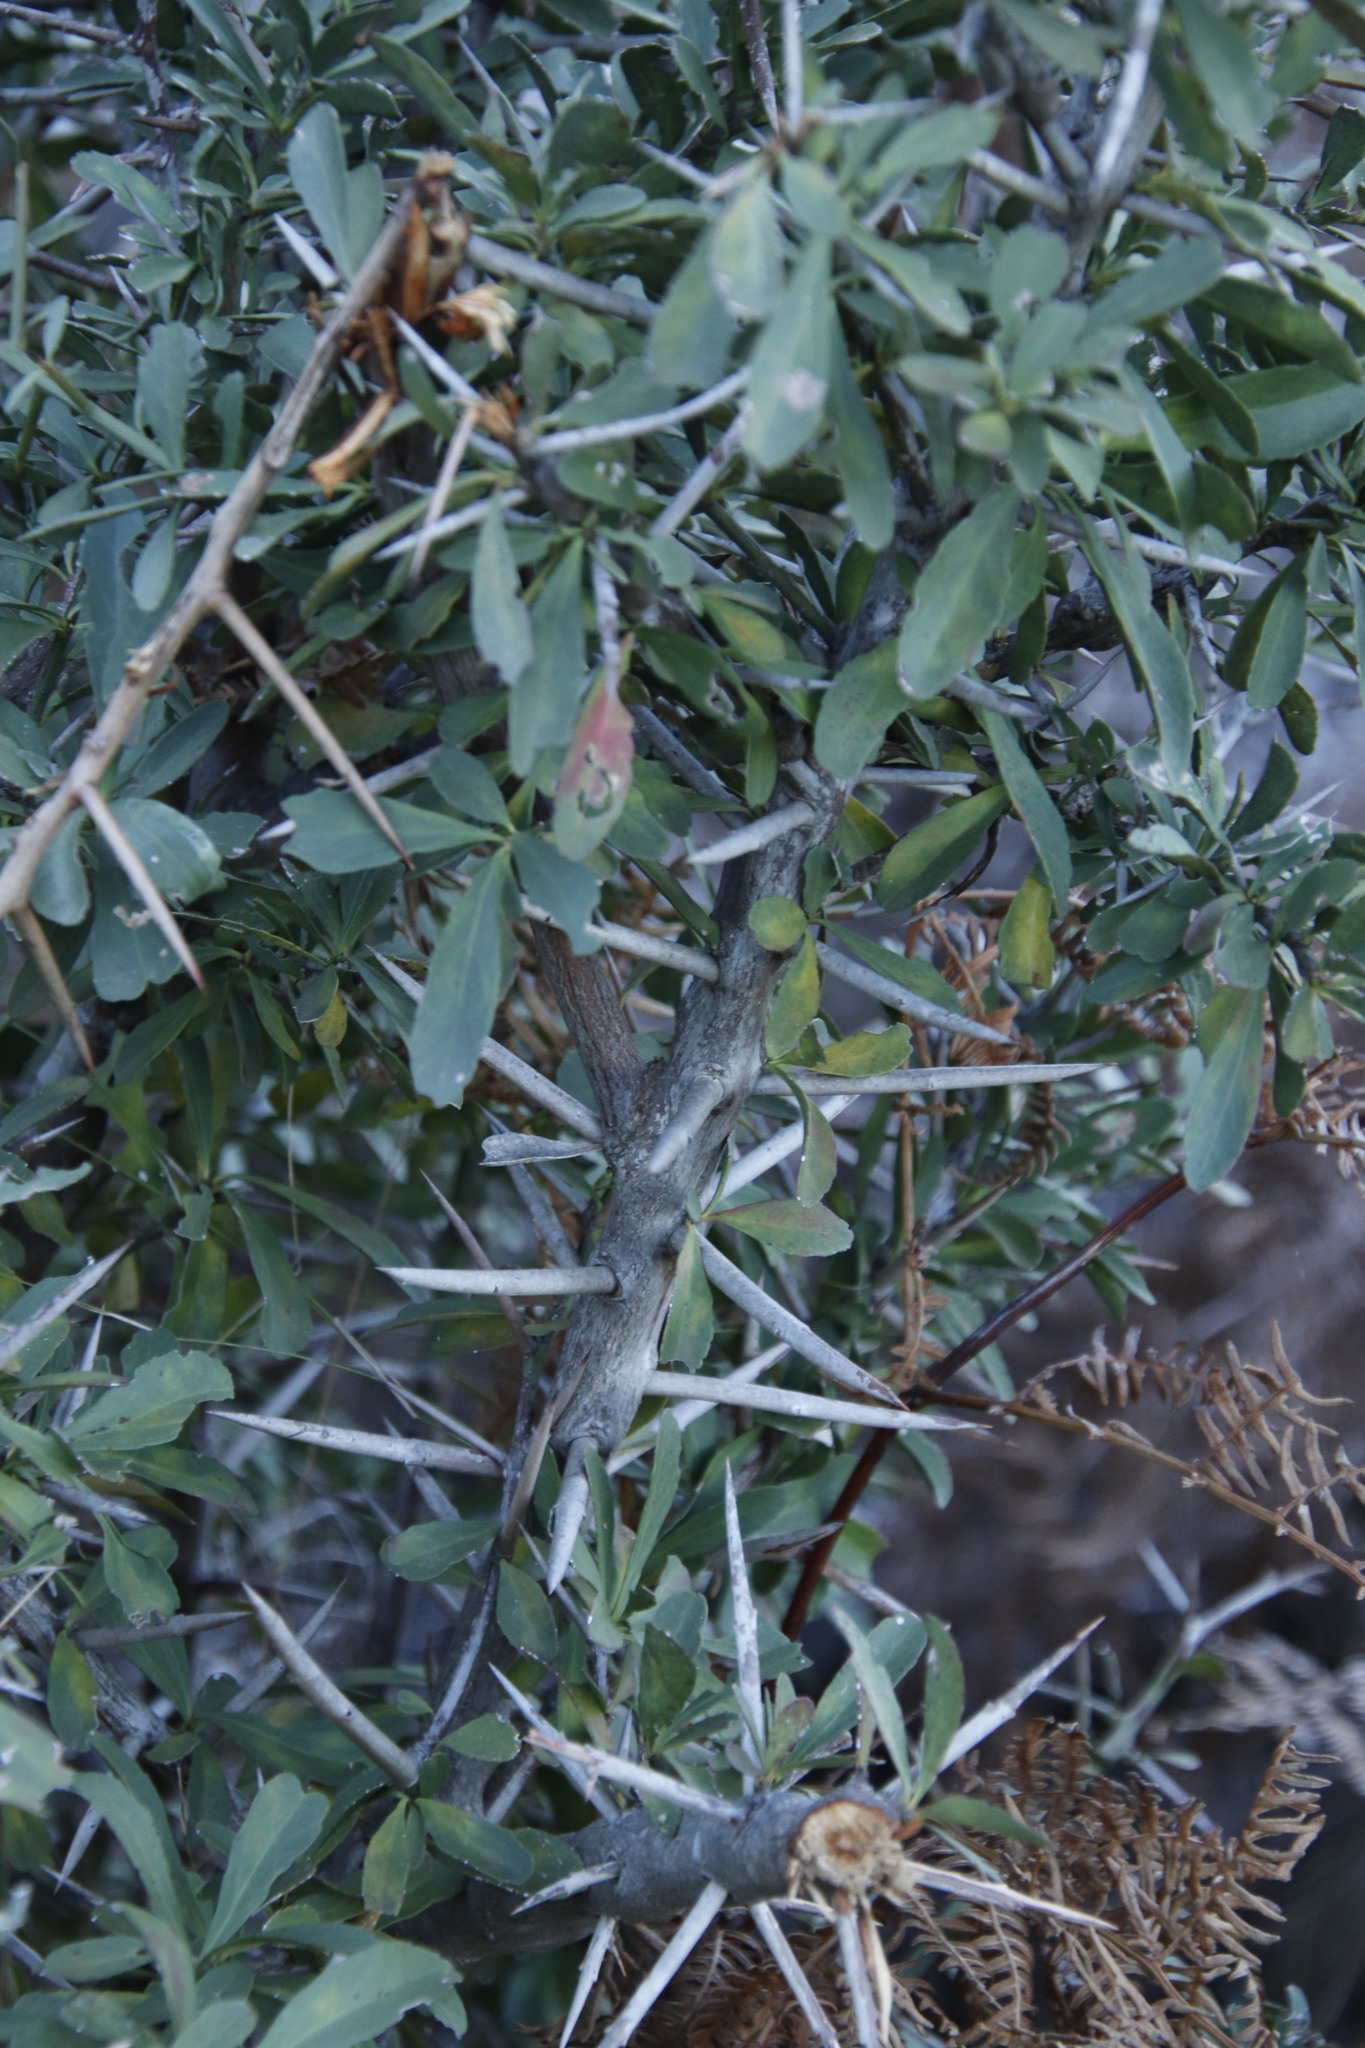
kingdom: Plantae
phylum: Tracheophyta
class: Magnoliopsida
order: Celastrales
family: Celastraceae
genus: Gymnosporia
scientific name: Gymnosporia buxifolia
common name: Common spike-thorn
